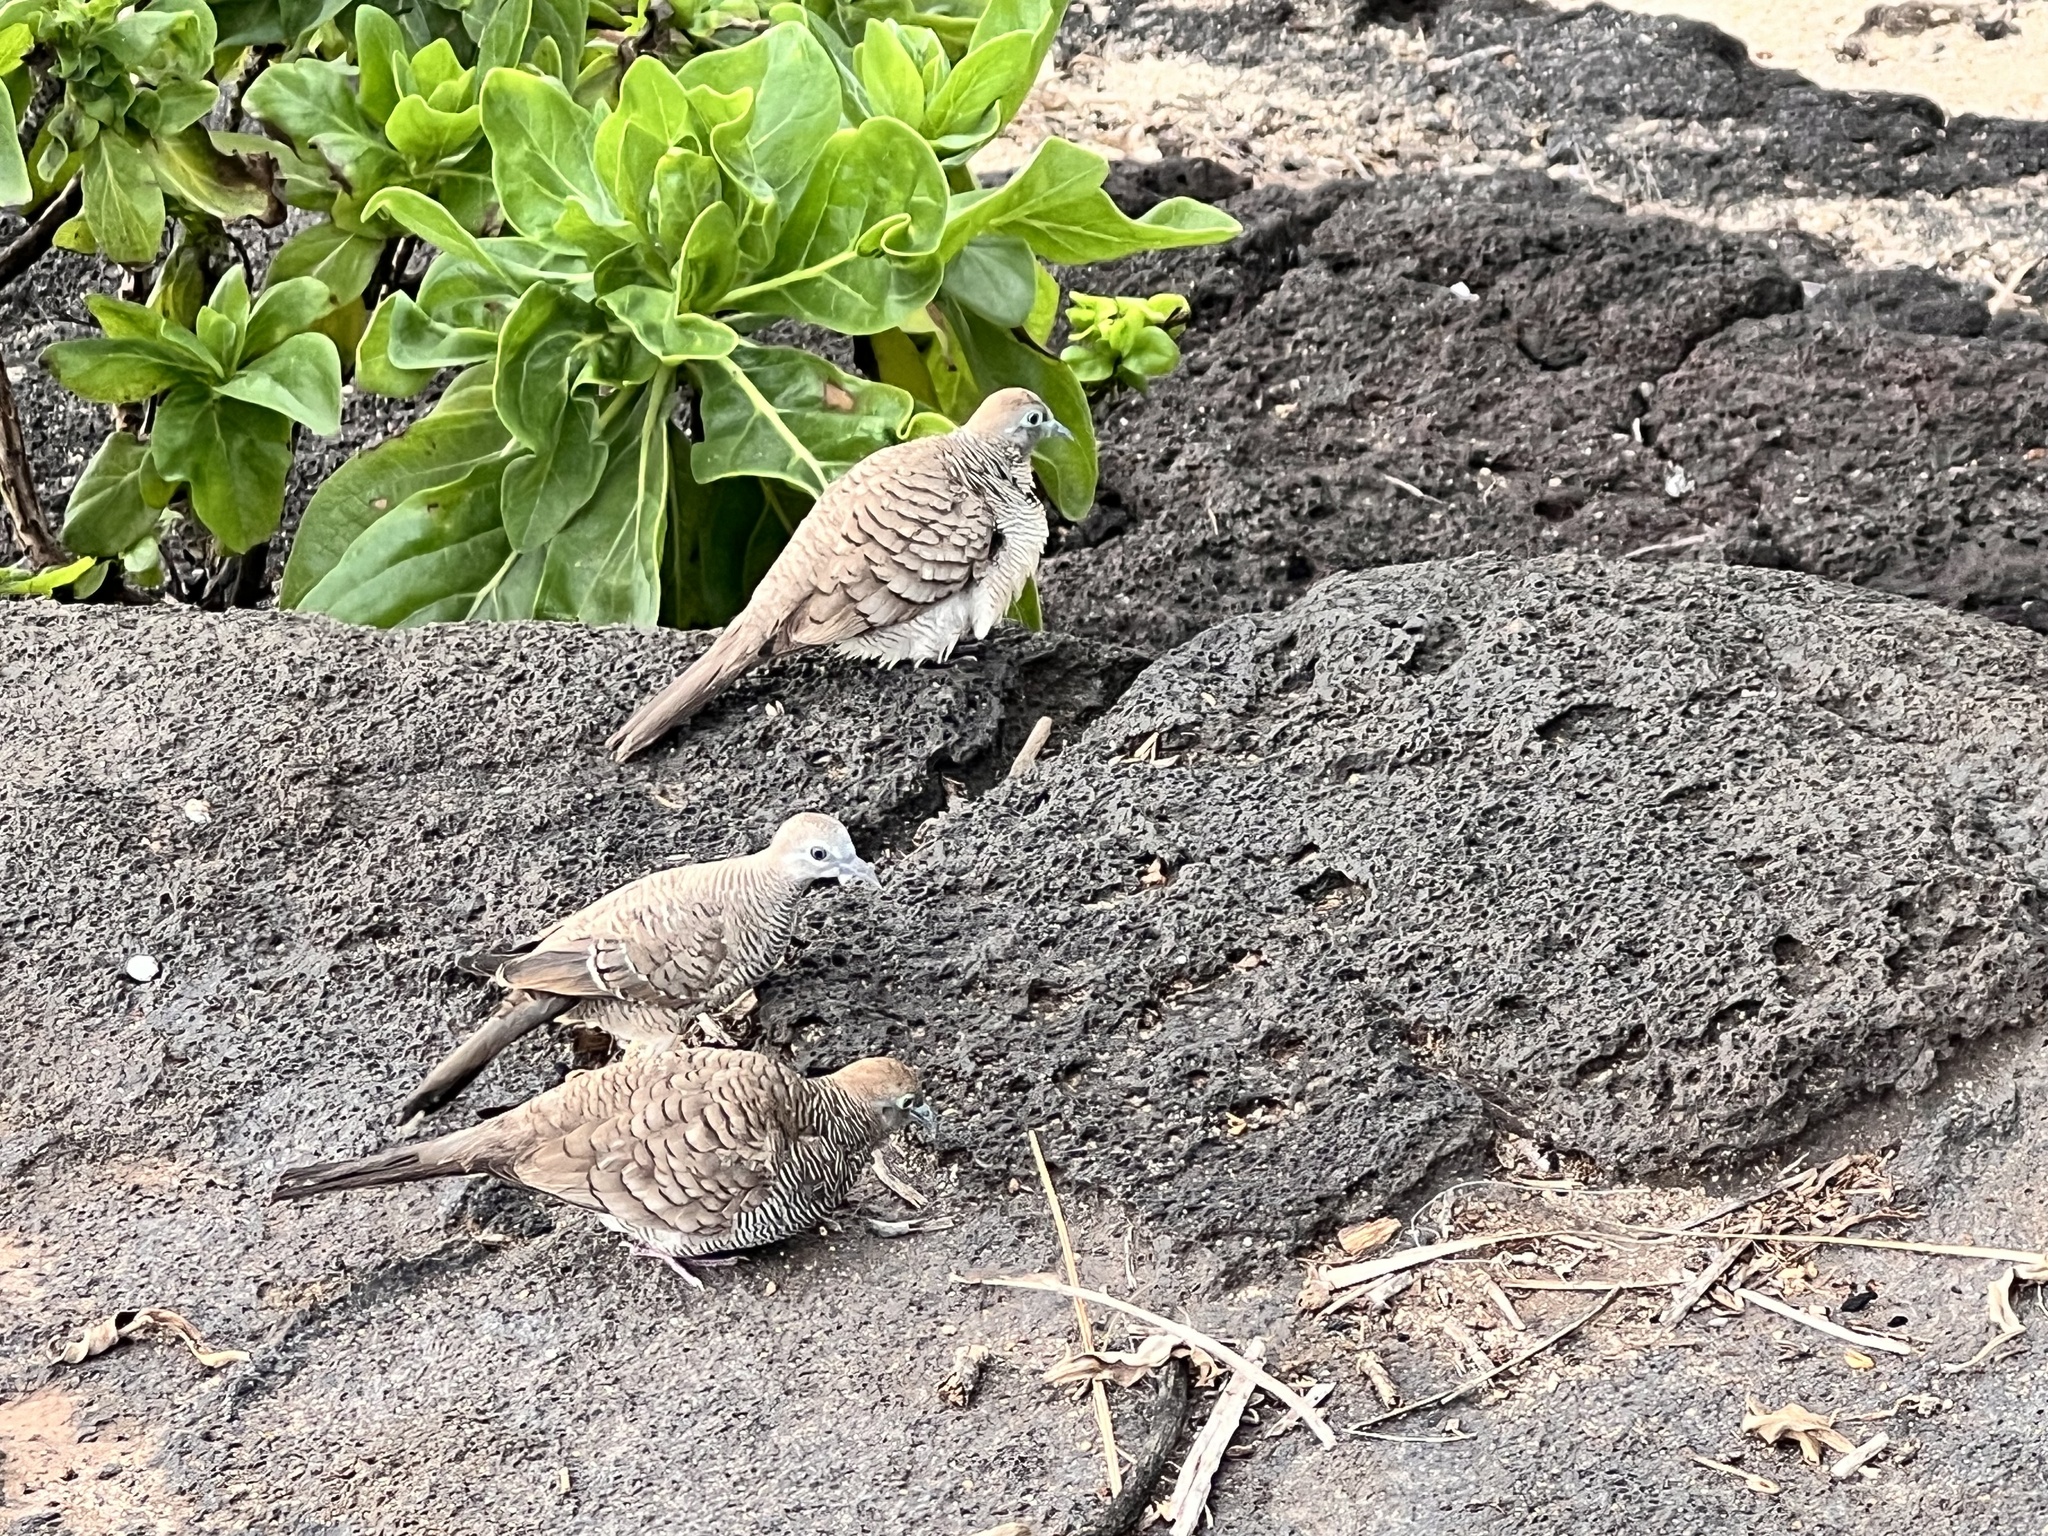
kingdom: Animalia
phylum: Chordata
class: Aves
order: Columbiformes
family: Columbidae
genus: Geopelia
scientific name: Geopelia striata
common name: Zebra dove
